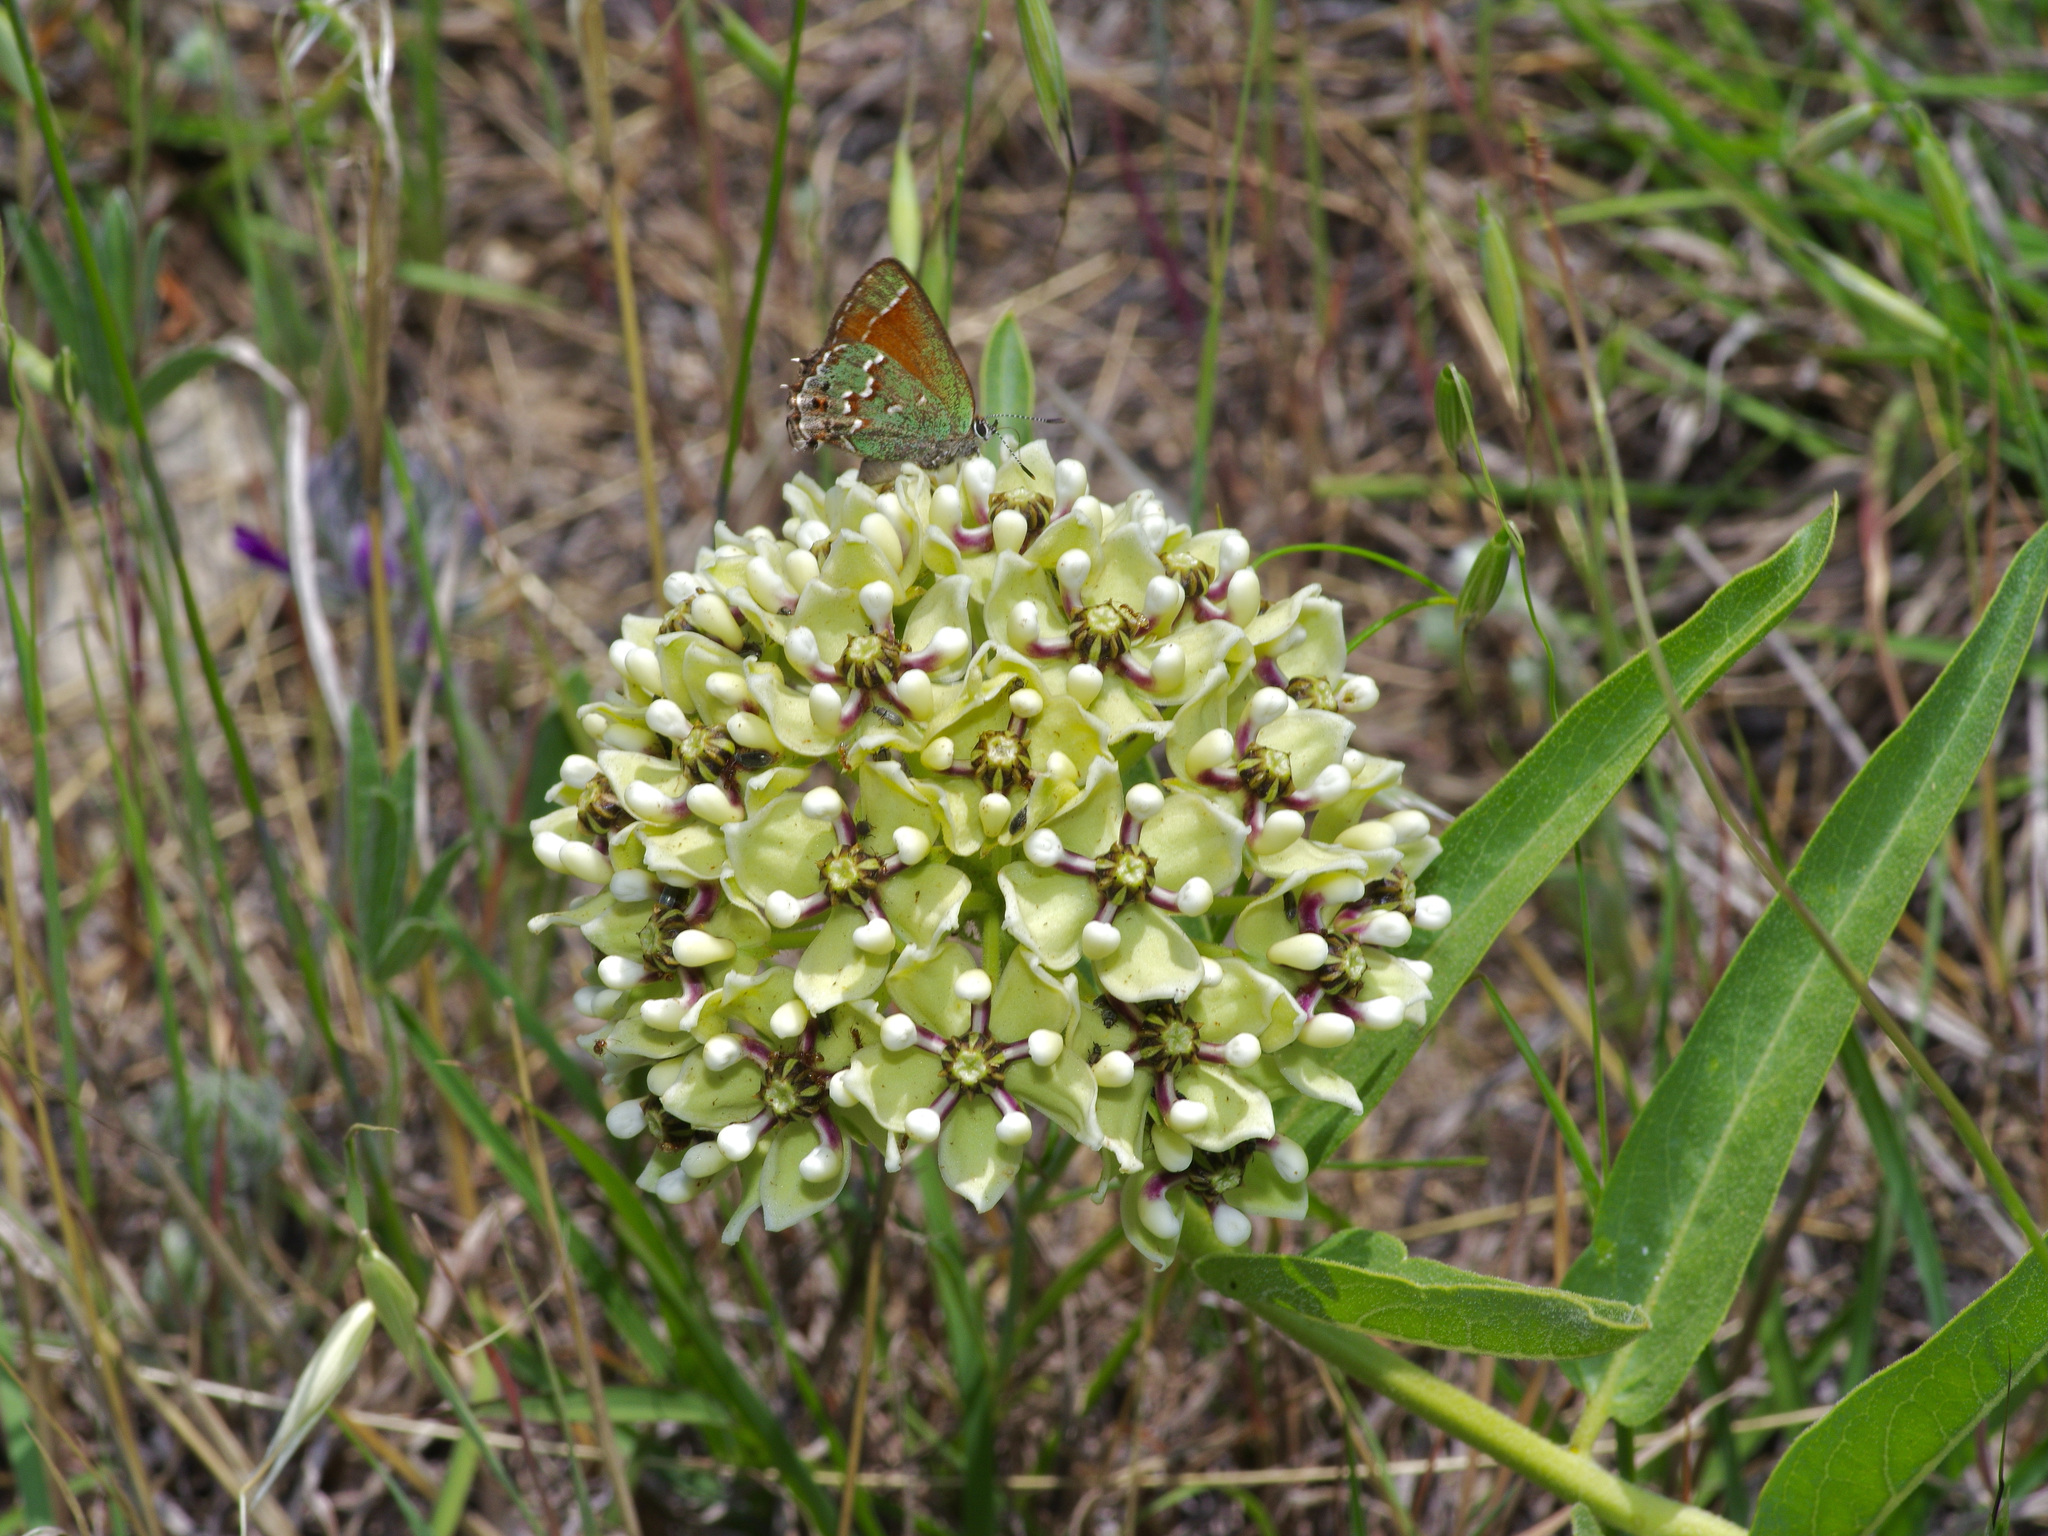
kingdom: Plantae
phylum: Tracheophyta
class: Magnoliopsida
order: Gentianales
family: Apocynaceae
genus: Asclepias
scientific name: Asclepias asperula
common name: Antelope horns
